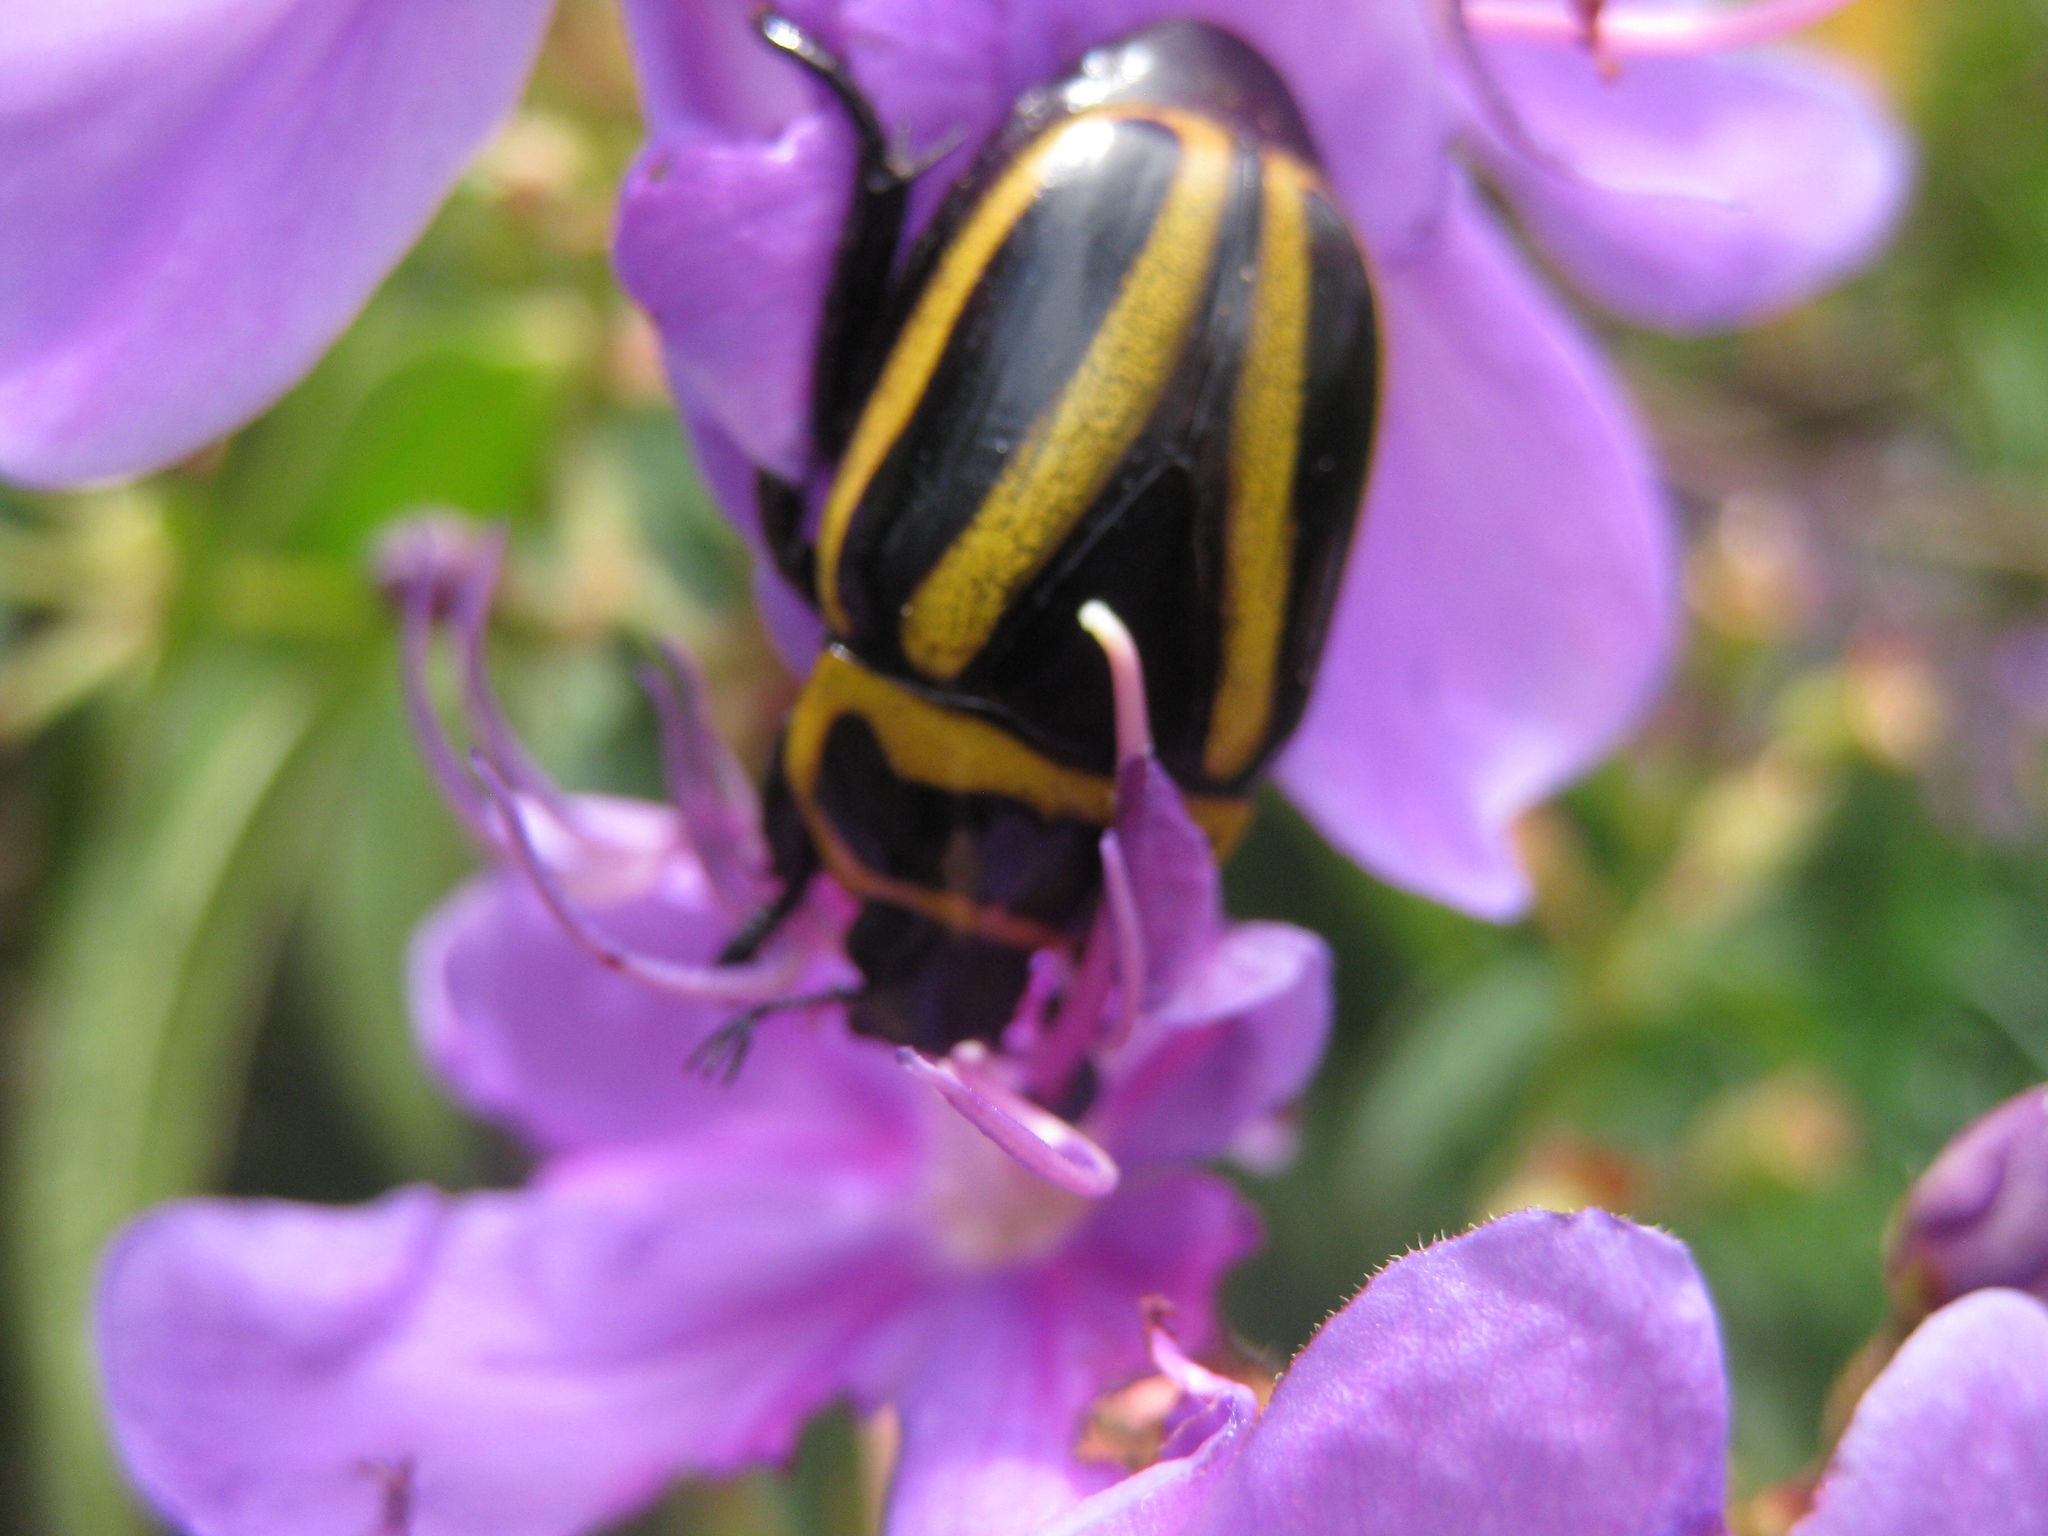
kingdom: Animalia
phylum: Arthropoda
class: Insecta
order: Coleoptera
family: Scarabaeidae
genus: Macraspis
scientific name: Macraspis cincta
